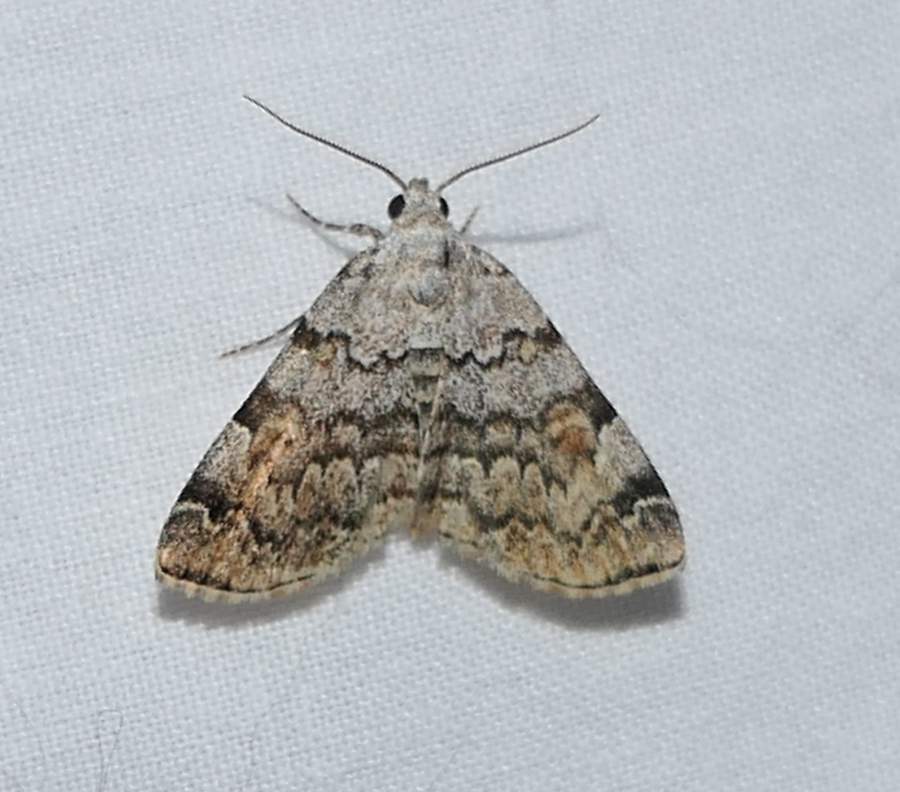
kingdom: Animalia
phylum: Arthropoda
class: Insecta
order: Lepidoptera
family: Erebidae
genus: Idia
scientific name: Idia americalis
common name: American idia moth
